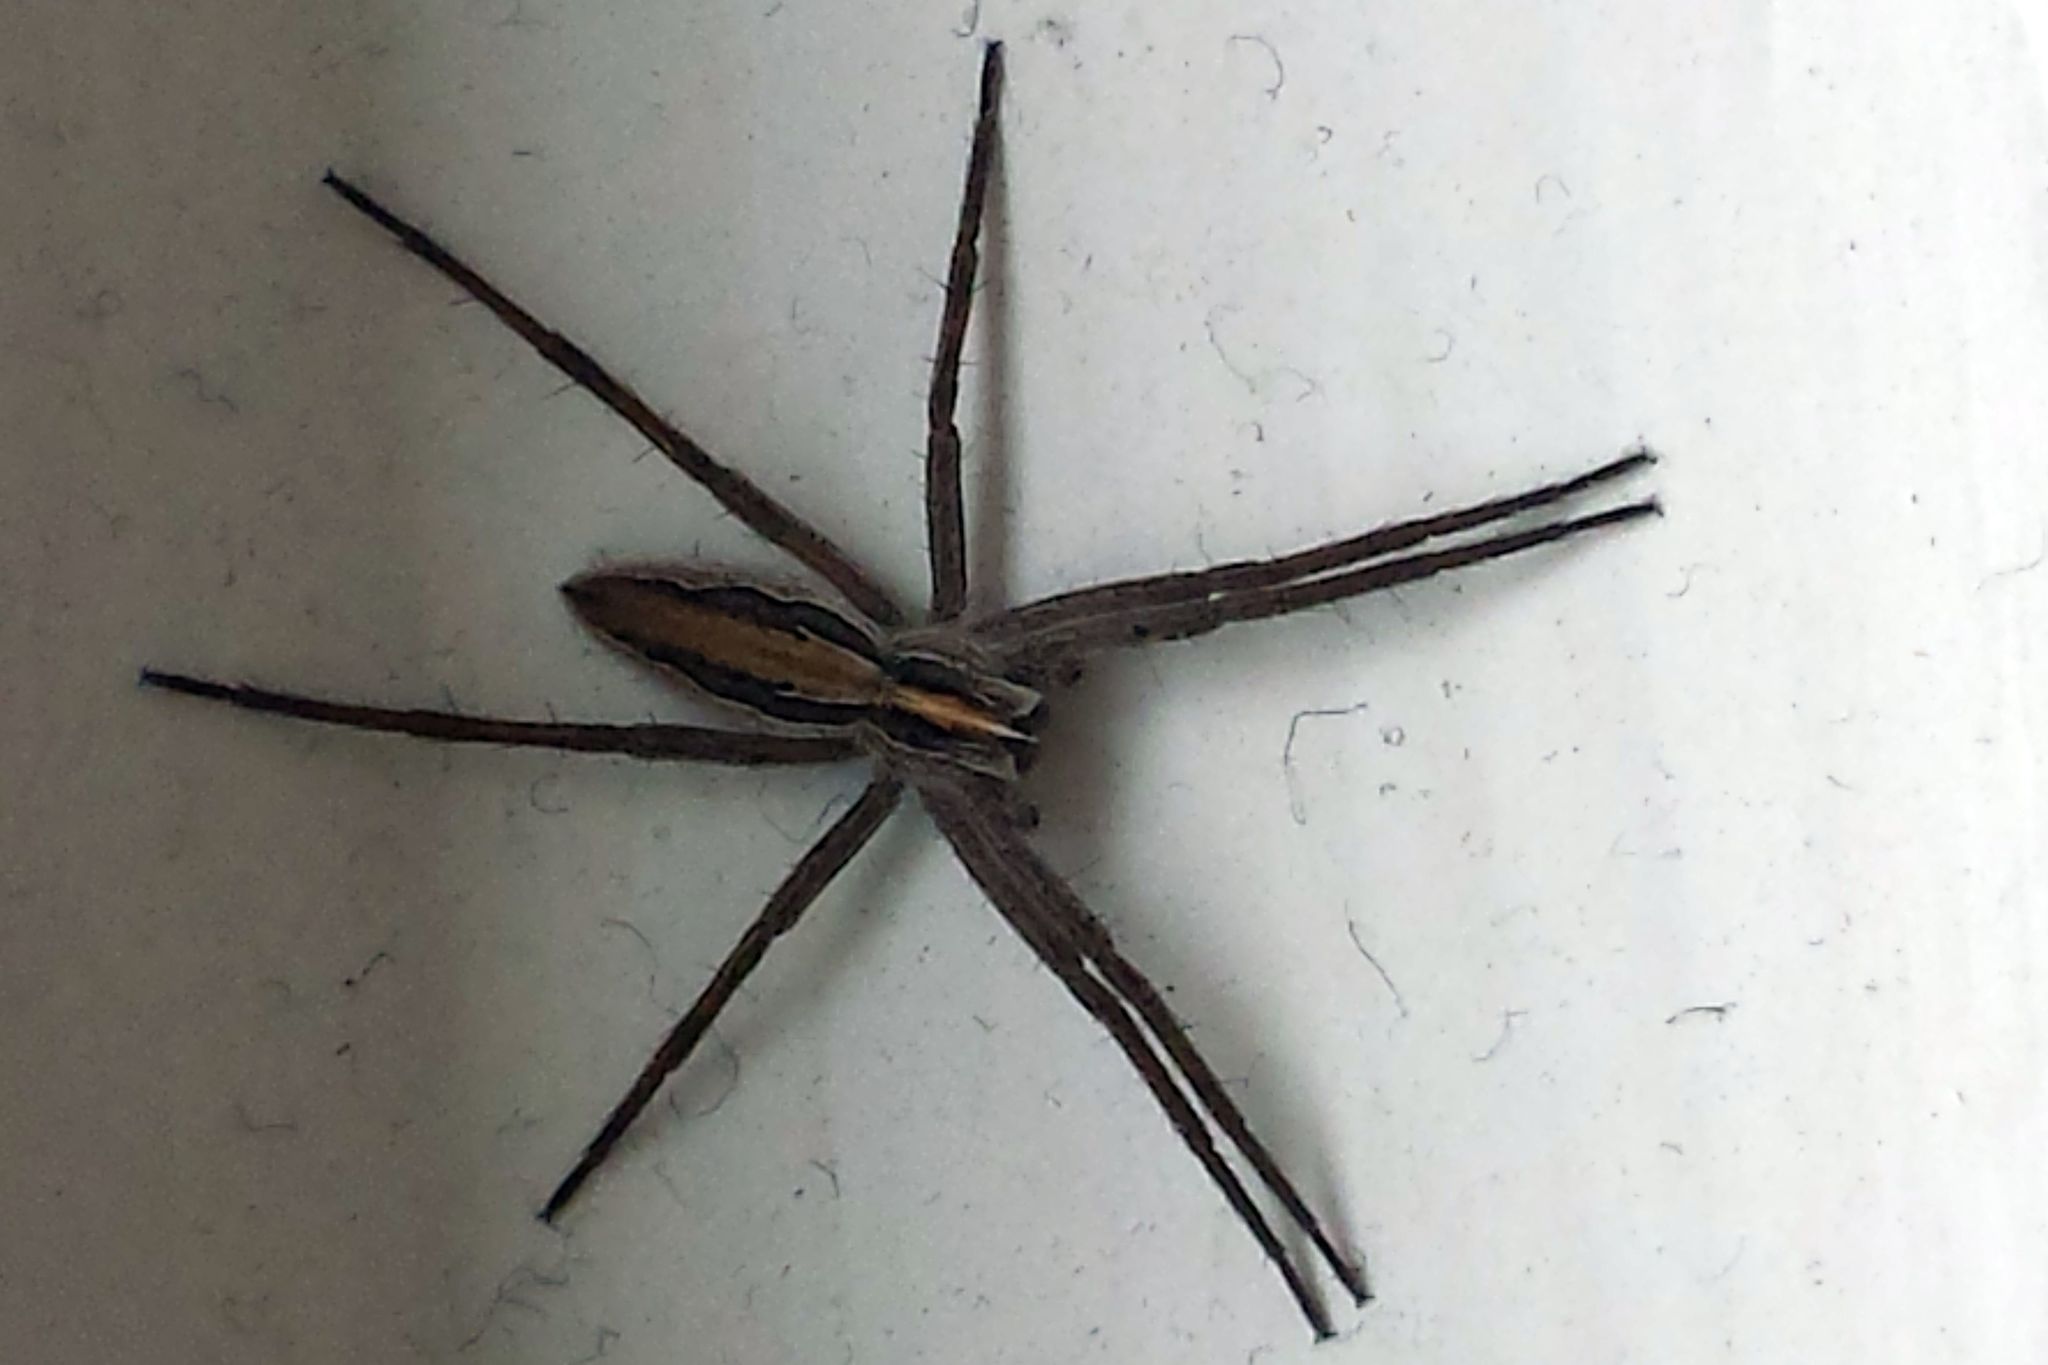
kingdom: Animalia
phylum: Arthropoda
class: Arachnida
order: Araneae
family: Pisauridae
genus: Pisaura
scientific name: Pisaura mirabilis
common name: Tent spider
